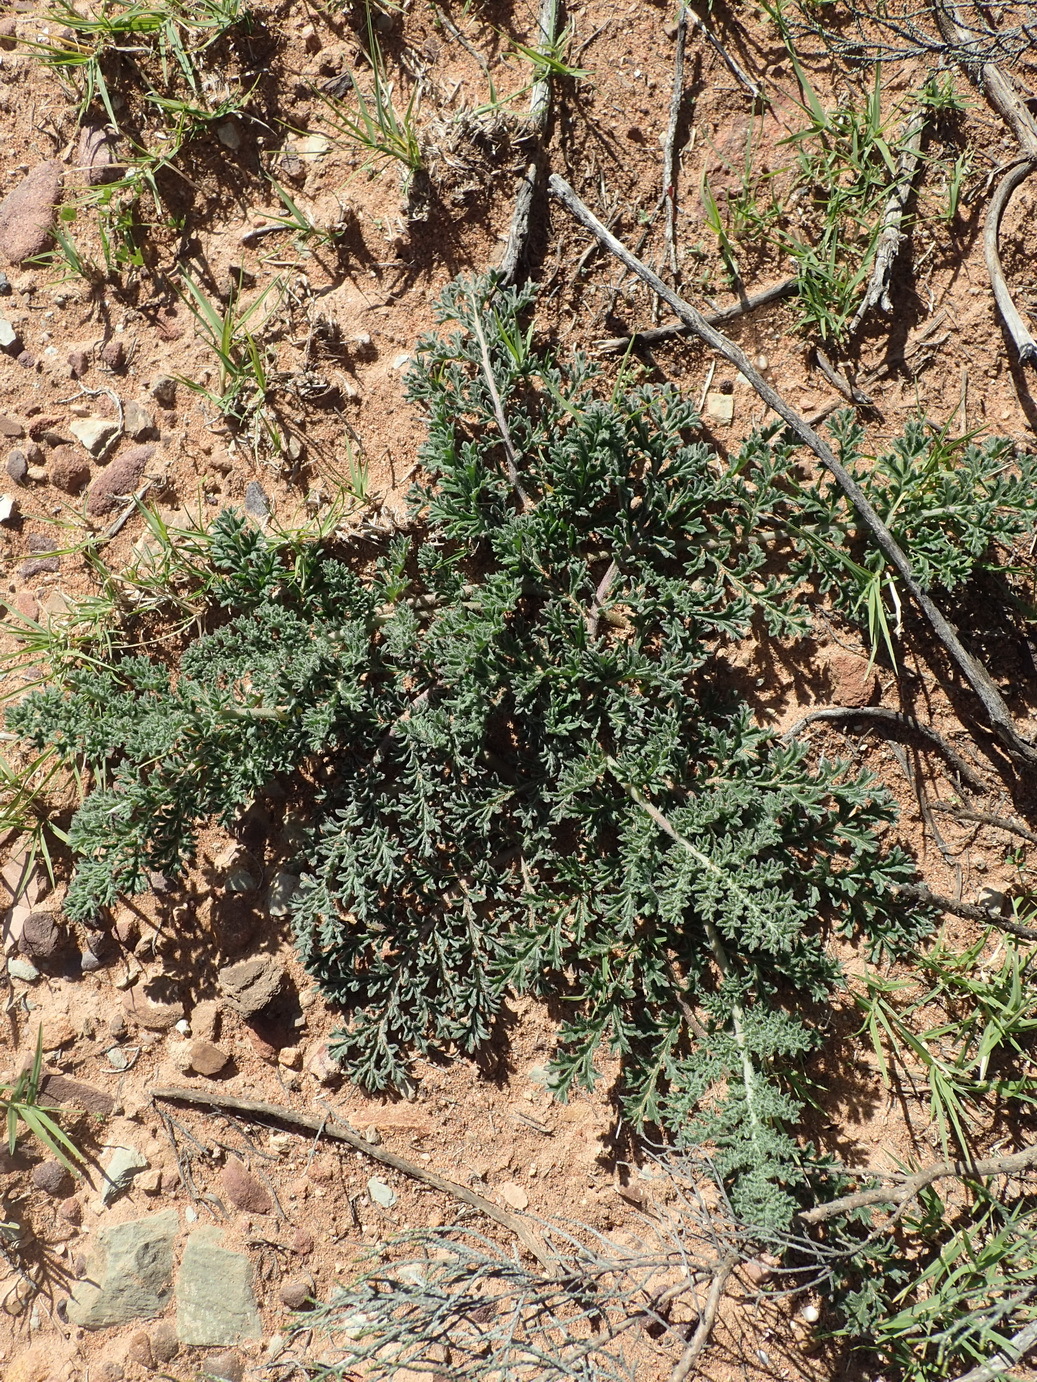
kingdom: Plantae
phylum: Tracheophyta
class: Magnoliopsida
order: Geraniales
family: Geraniaceae
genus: Pelargonium
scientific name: Pelargonium triste
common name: Night-scent pelargonium
